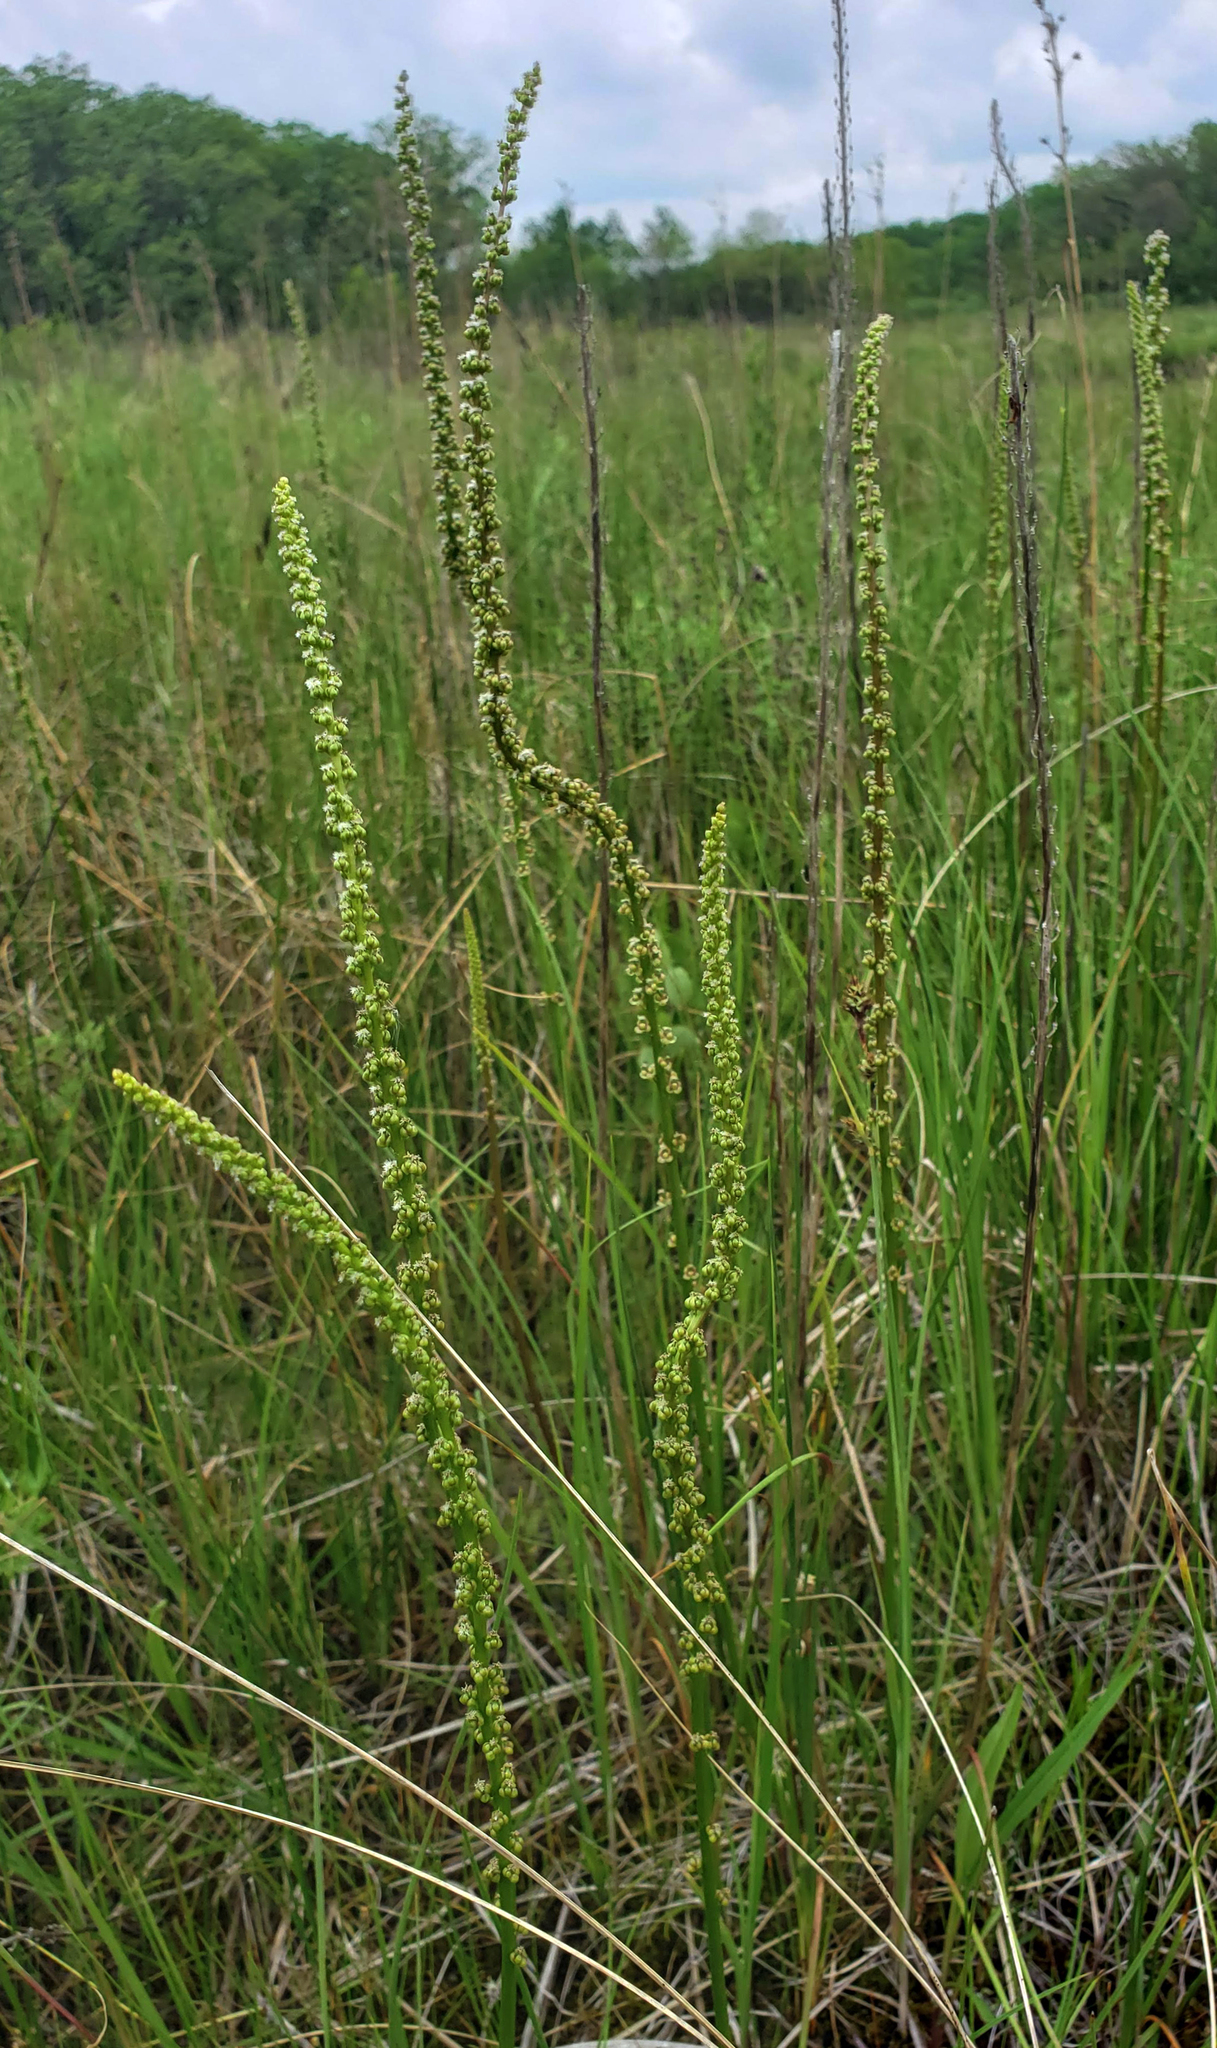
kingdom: Plantae
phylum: Tracheophyta
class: Liliopsida
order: Alismatales
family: Juncaginaceae
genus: Triglochin
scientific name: Triglochin maritima
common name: Sea arrowgrass
